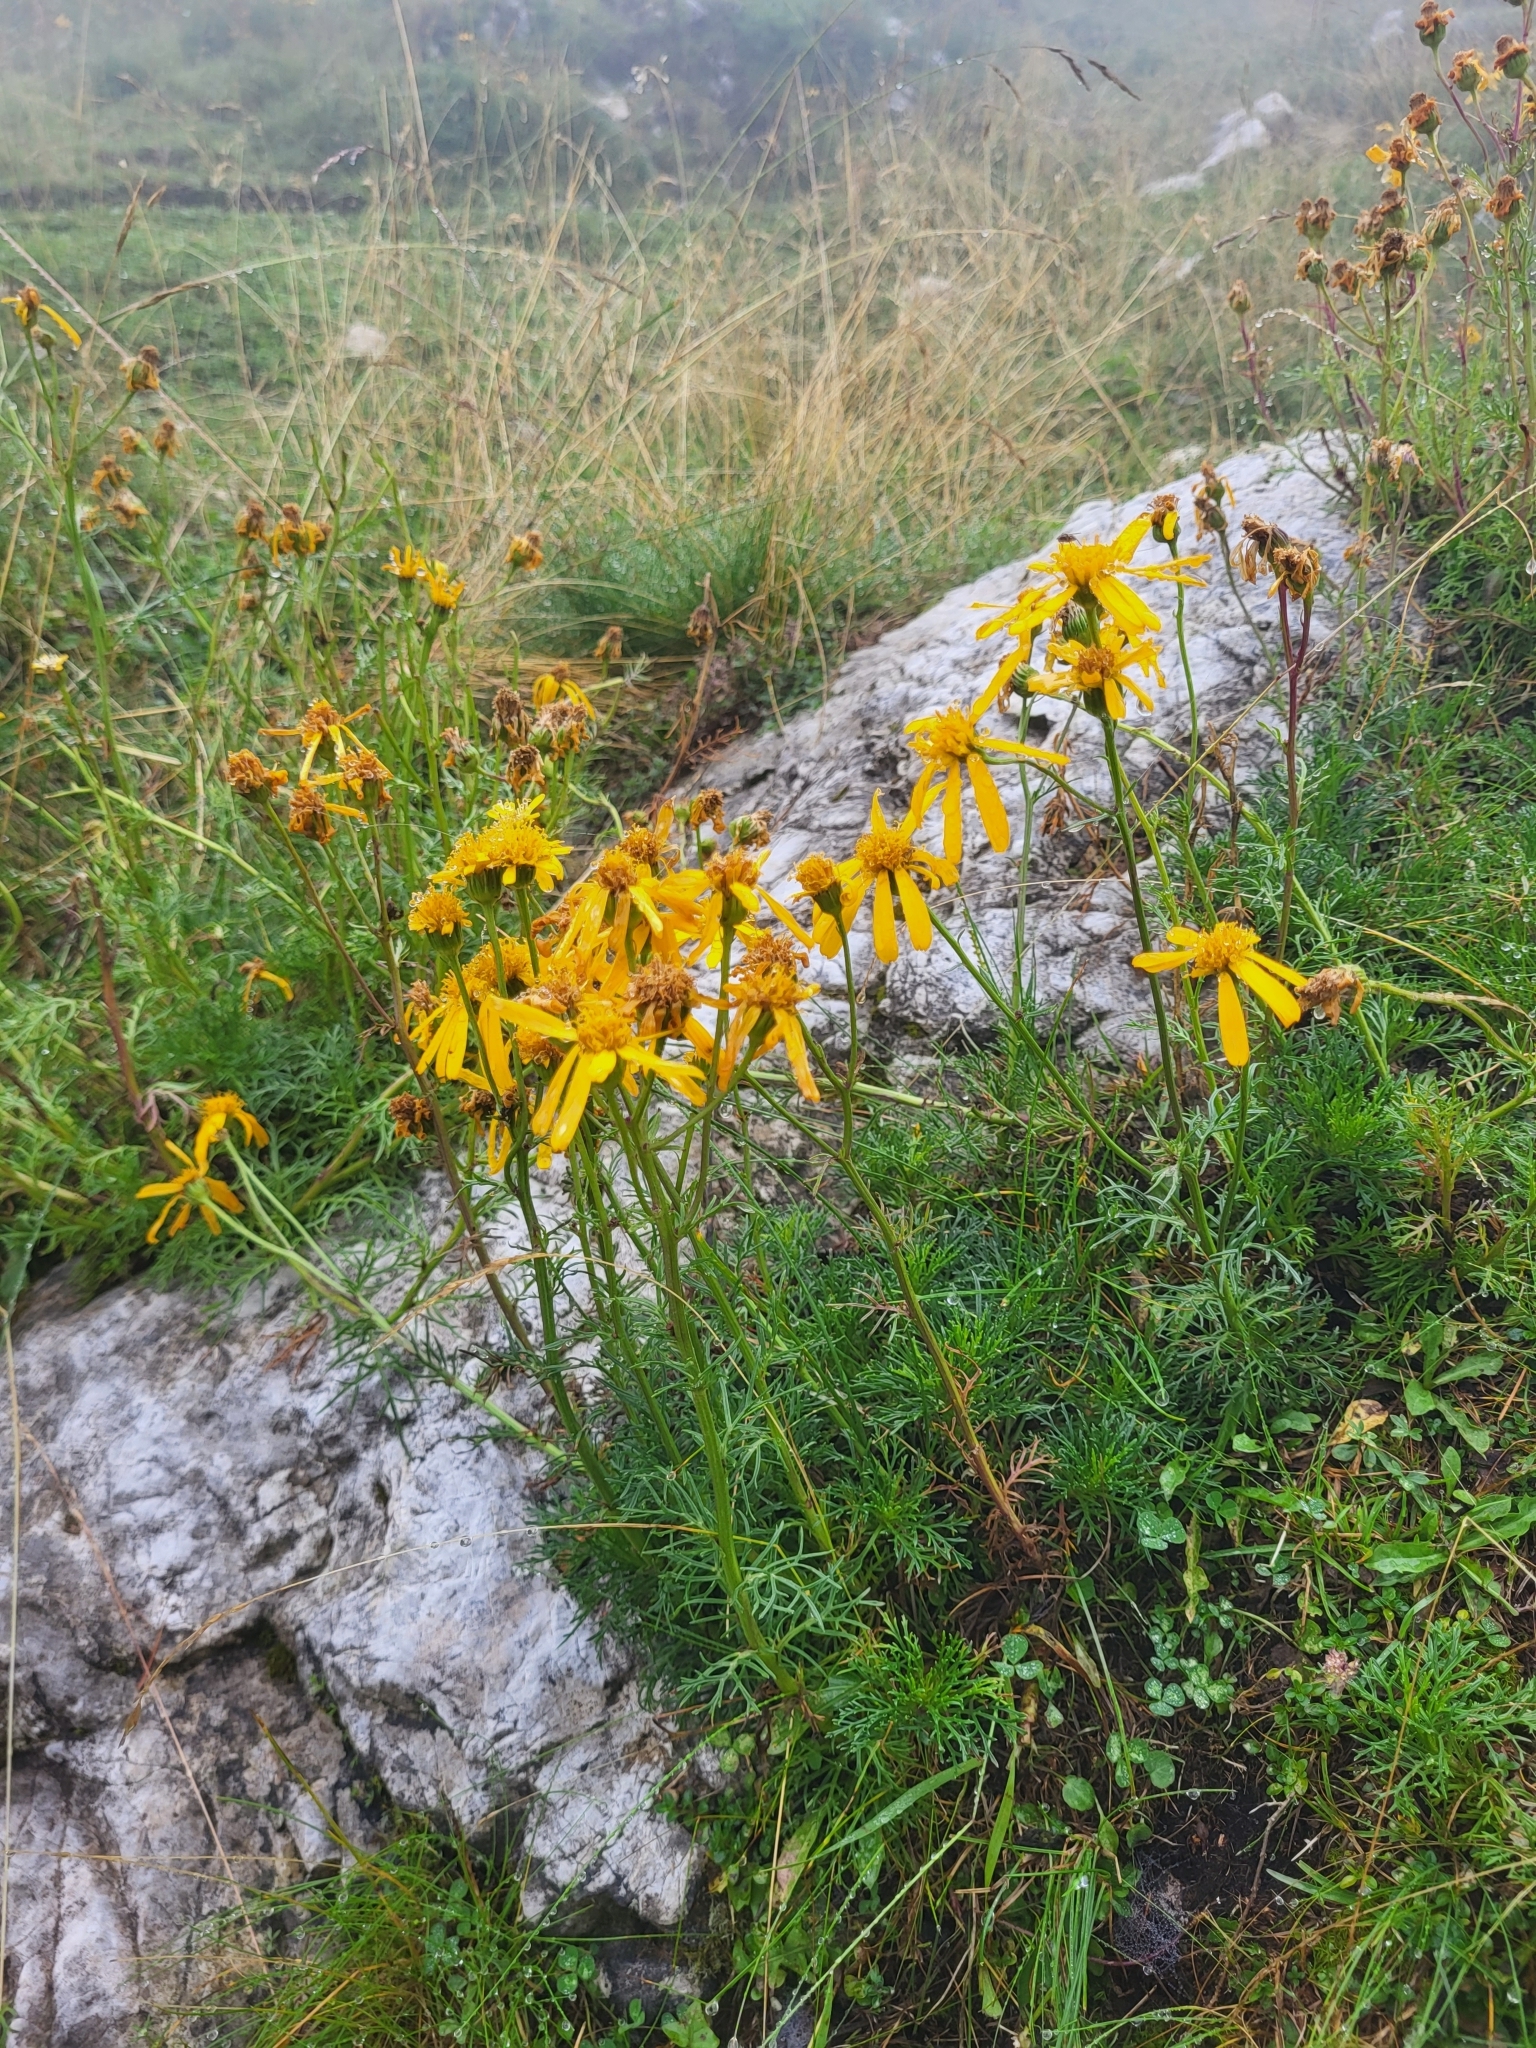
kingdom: Plantae
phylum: Tracheophyta
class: Magnoliopsida
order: Asterales
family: Asteraceae
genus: Jacobaea
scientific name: Jacobaea abrotanifolia
